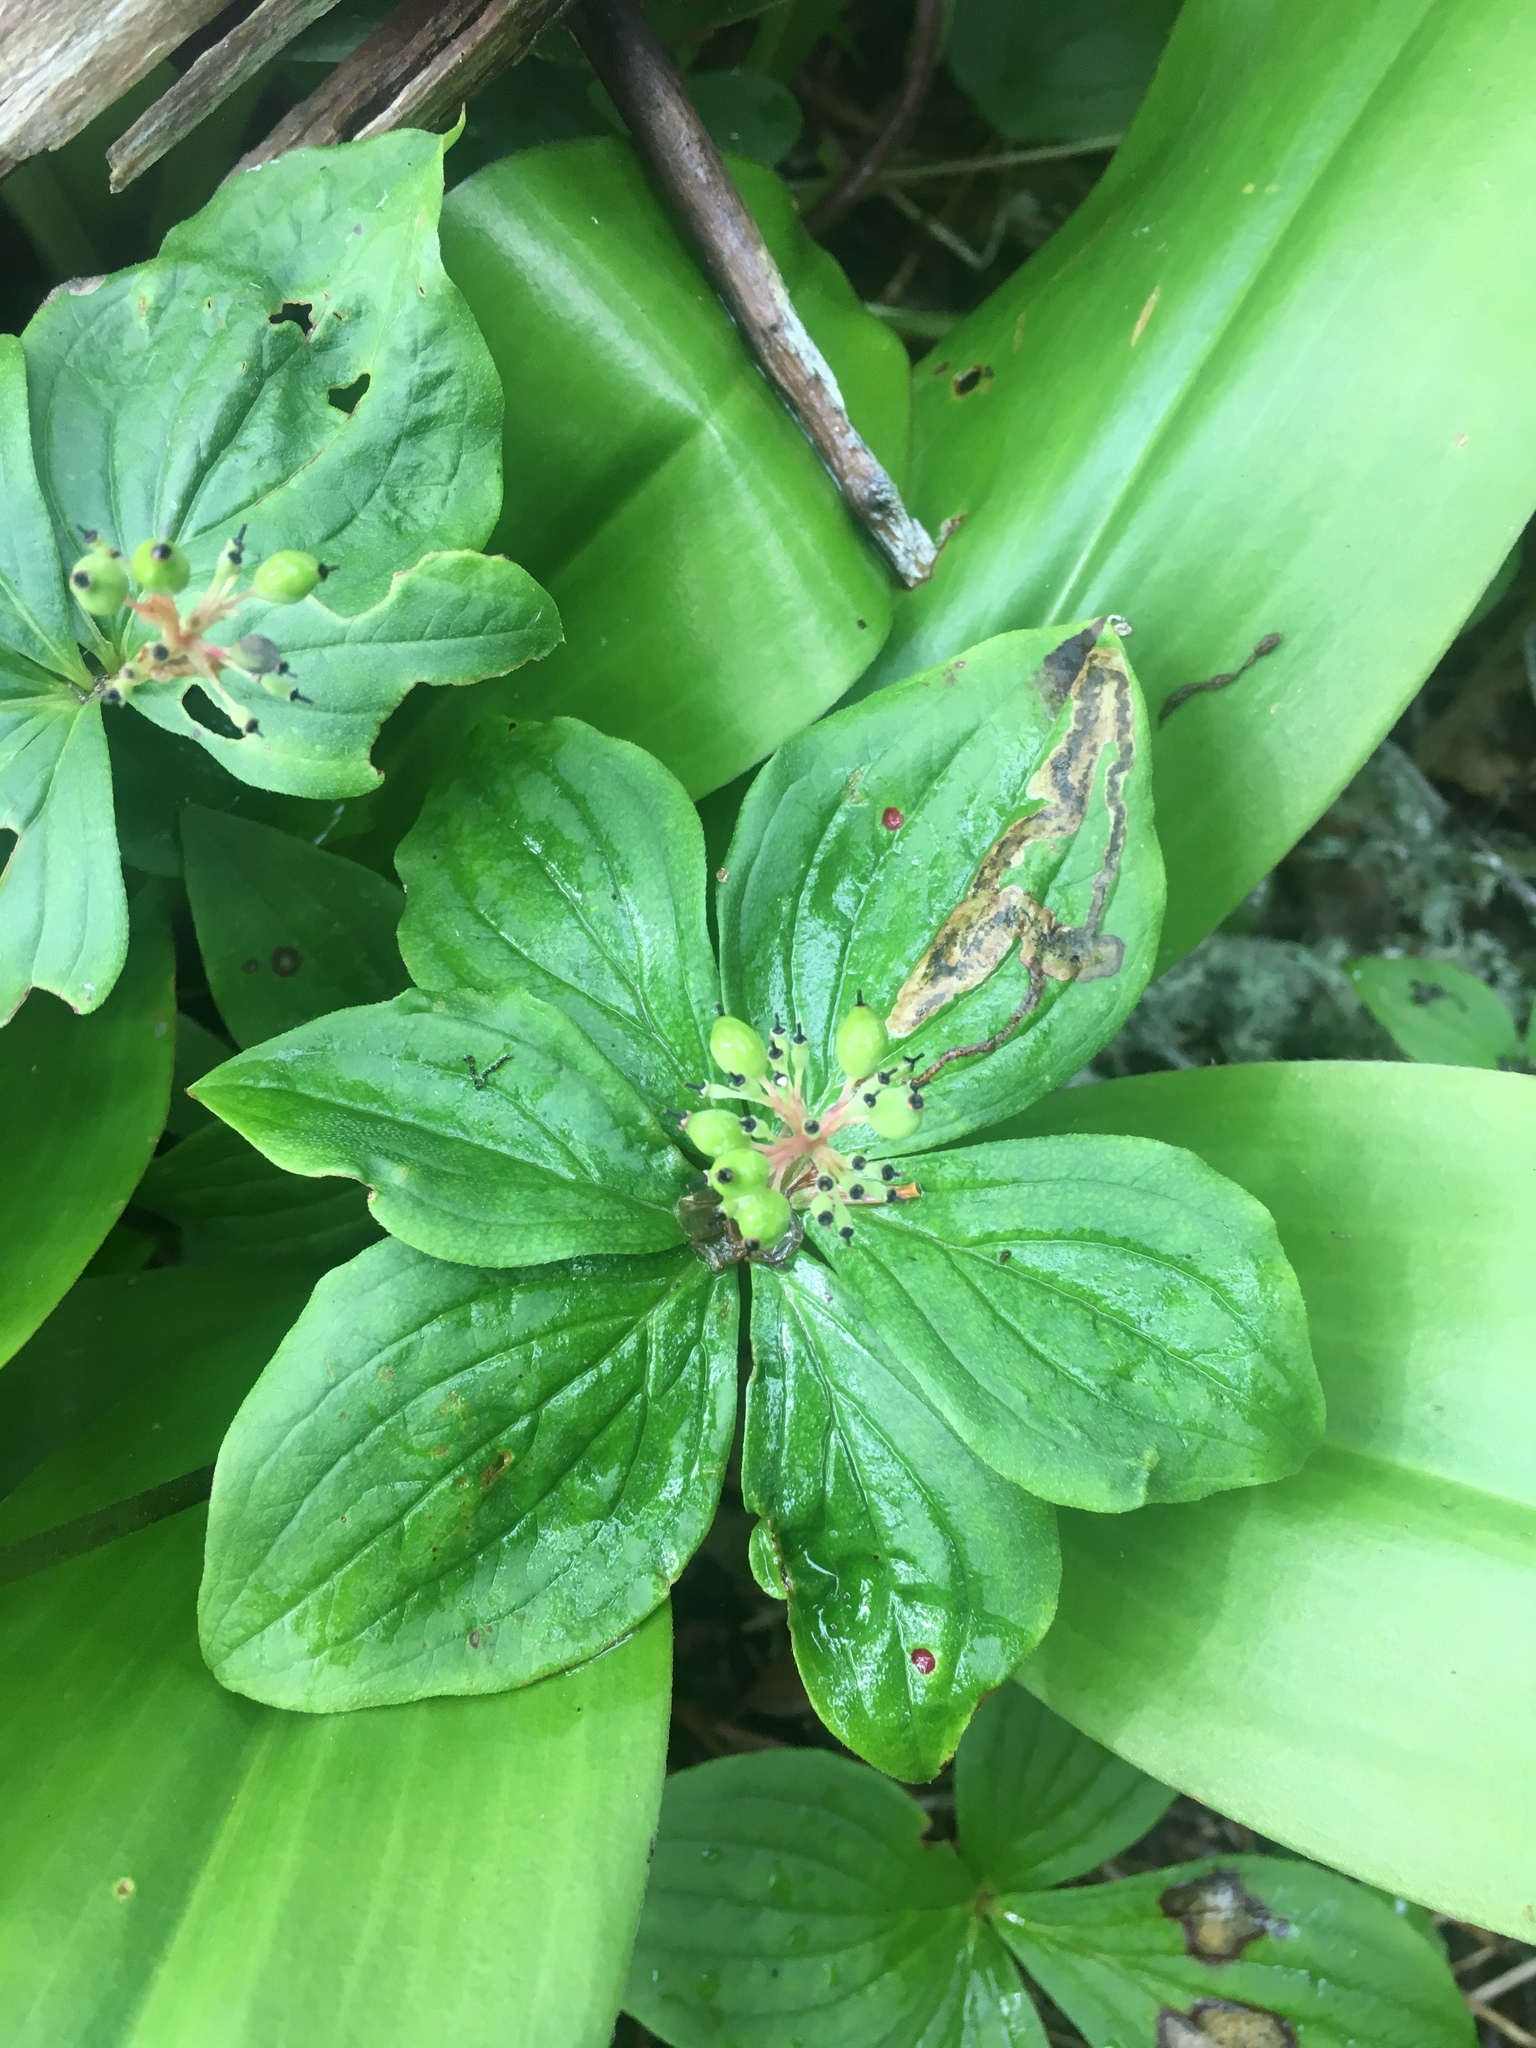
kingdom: Plantae
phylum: Tracheophyta
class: Magnoliopsida
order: Cornales
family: Cornaceae
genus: Cornus
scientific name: Cornus canadensis
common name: Creeping dogwood
